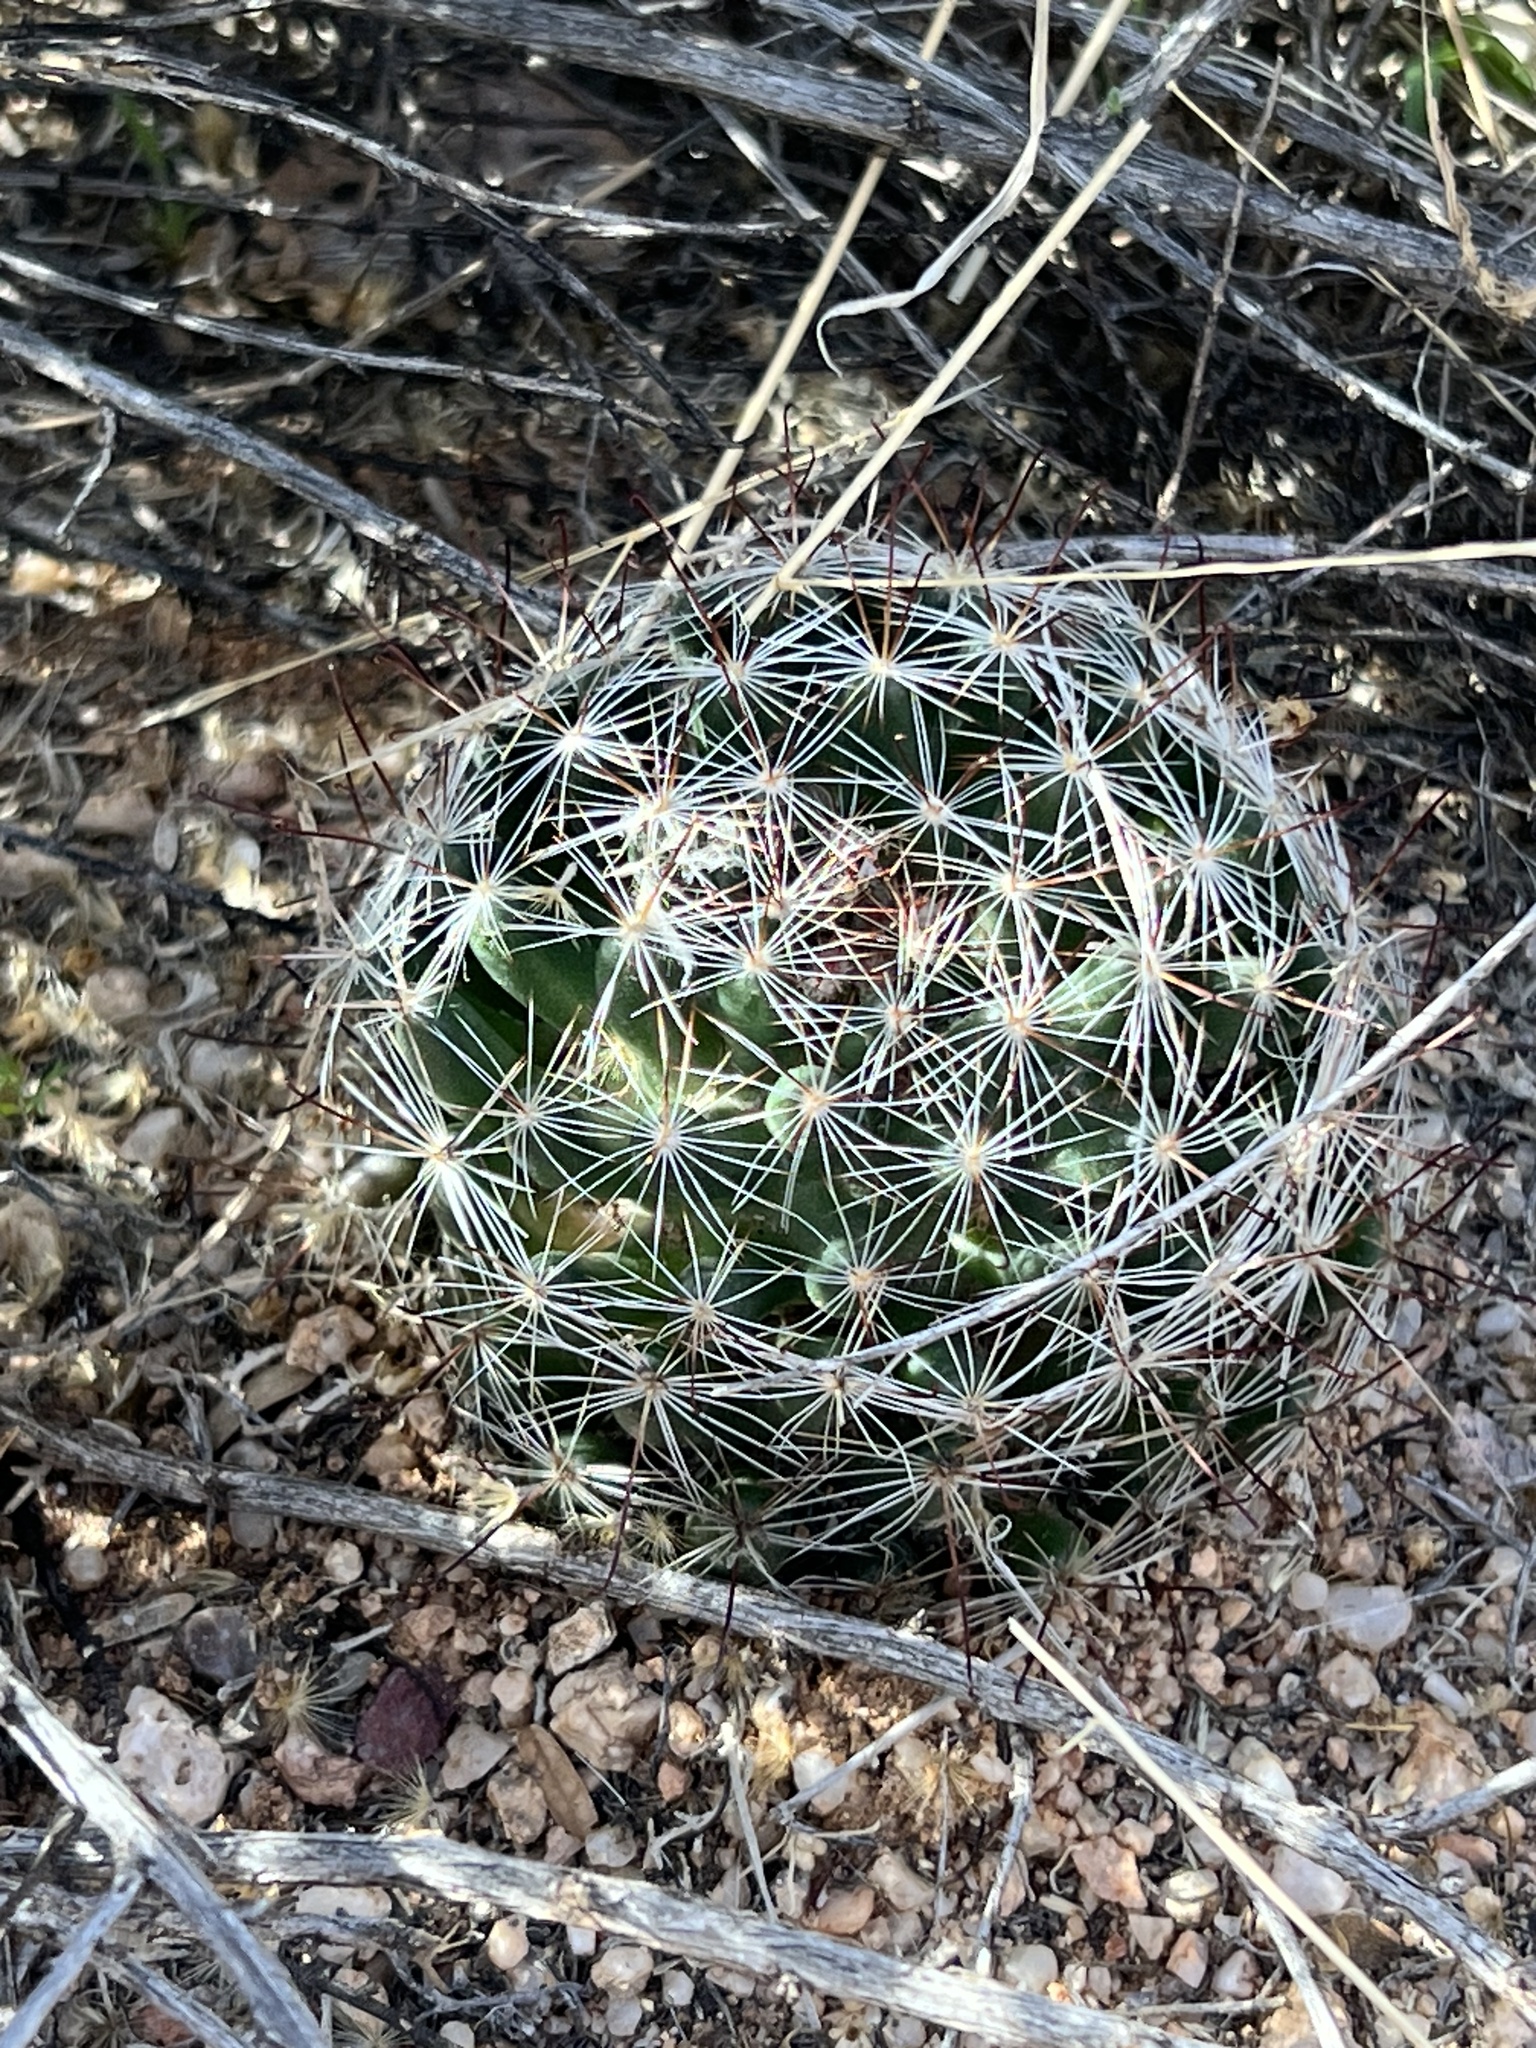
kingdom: Plantae
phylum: Tracheophyta
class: Magnoliopsida
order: Caryophyllales
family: Cactaceae
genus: Cochemiea
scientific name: Cochemiea wrightii
